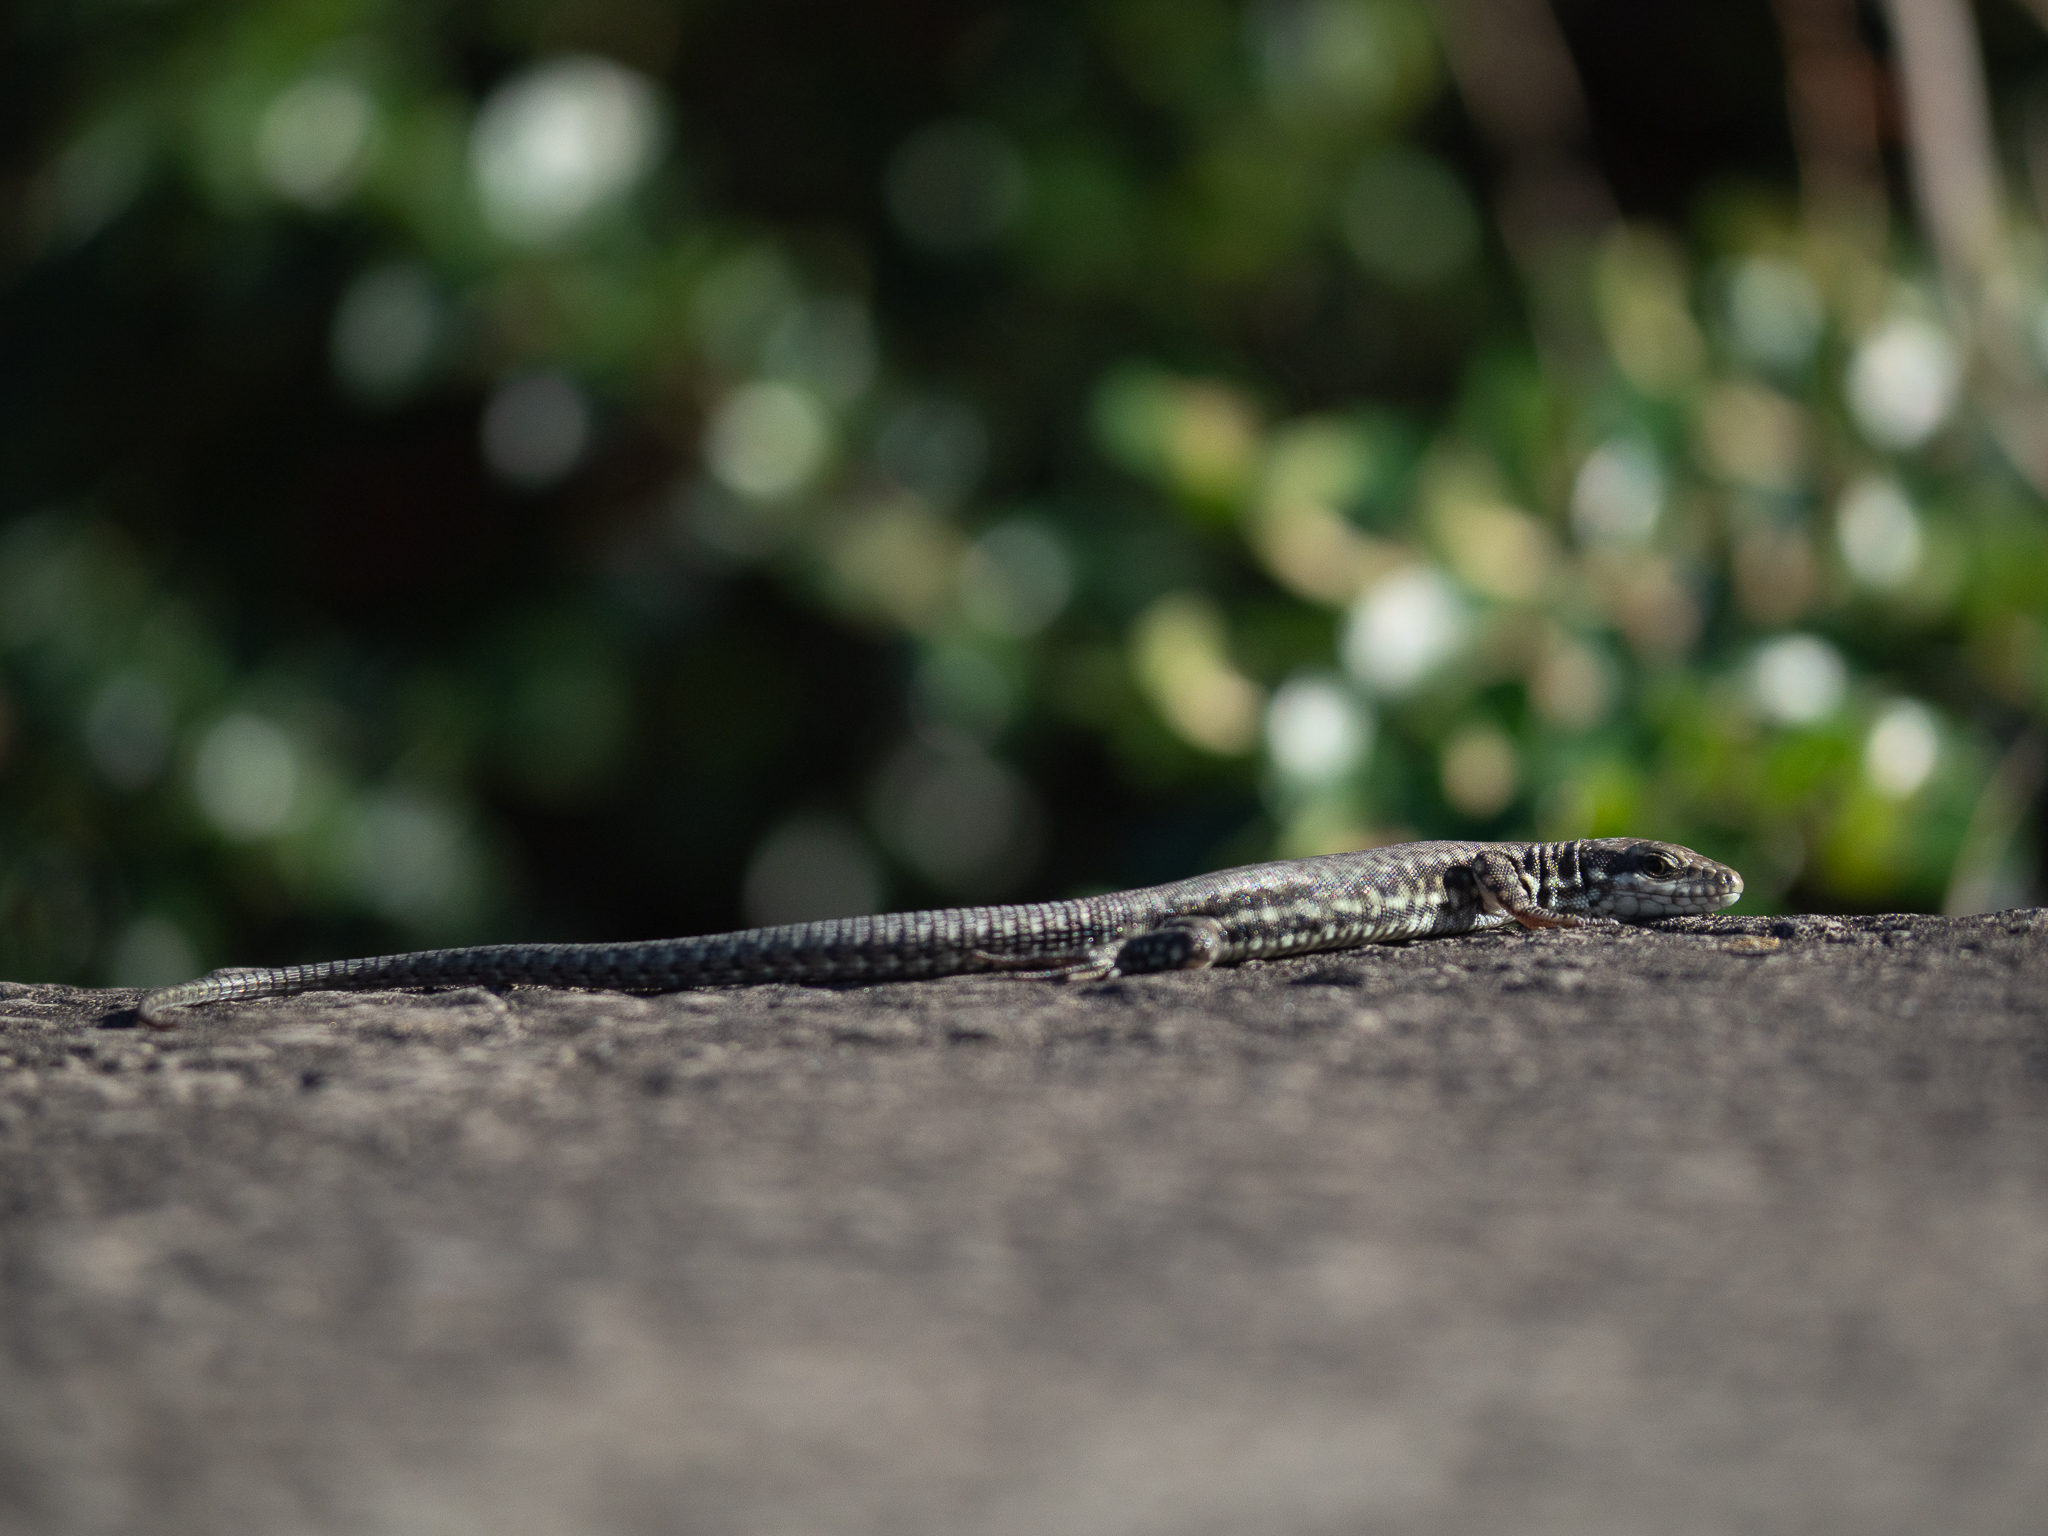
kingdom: Animalia
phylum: Chordata
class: Squamata
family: Lacertidae
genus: Podarcis
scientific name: Podarcis muralis
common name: Common wall lizard
